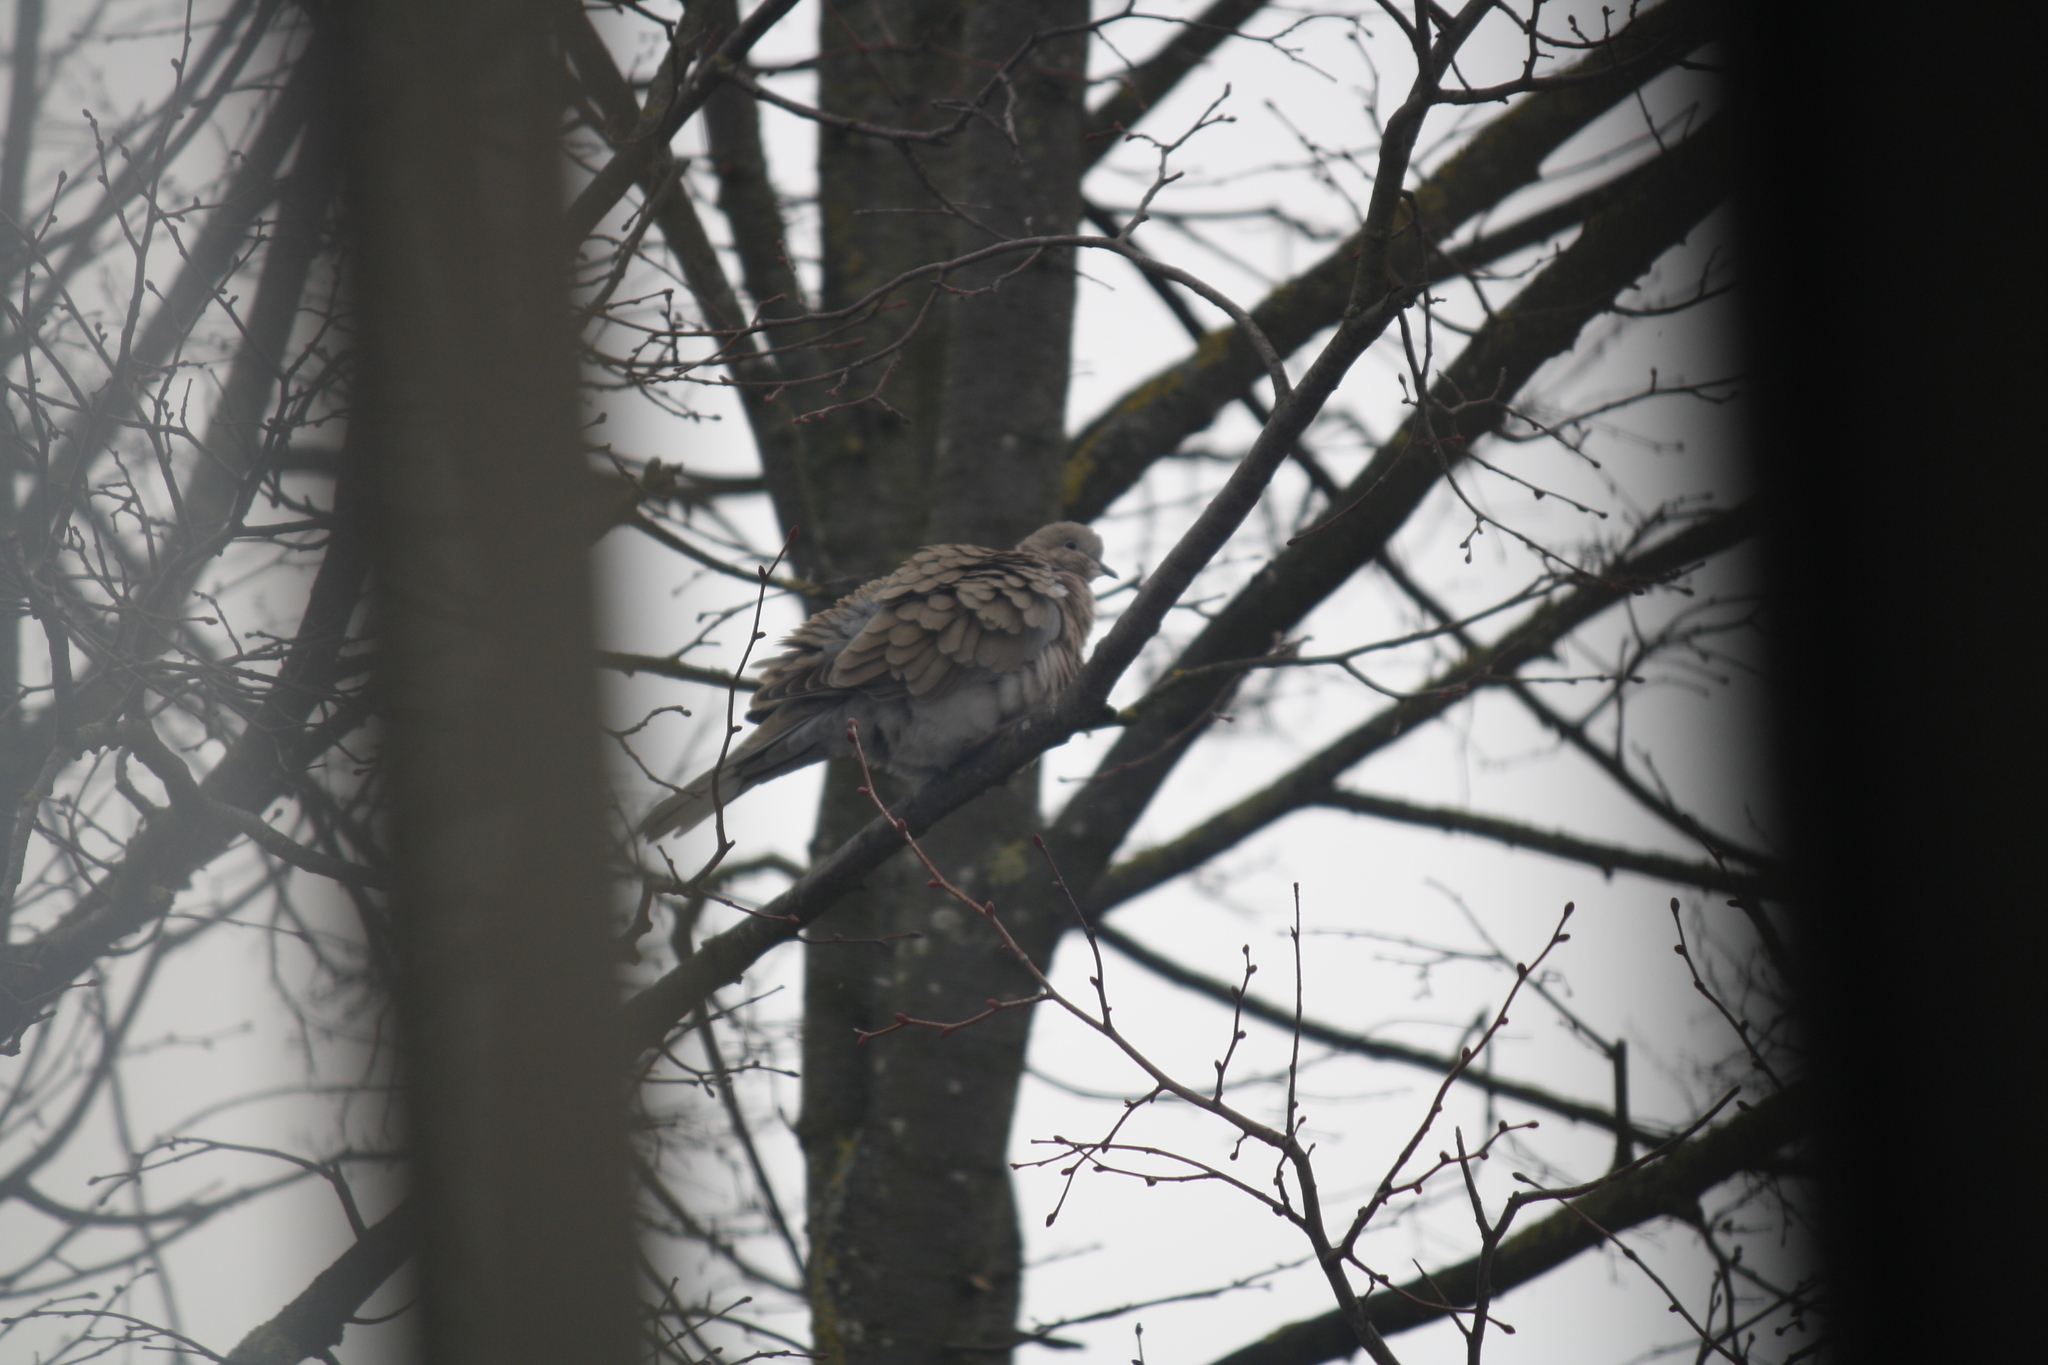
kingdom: Animalia
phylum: Chordata
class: Aves
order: Columbiformes
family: Columbidae
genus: Streptopelia
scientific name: Streptopelia decaocto
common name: Eurasian collared dove
